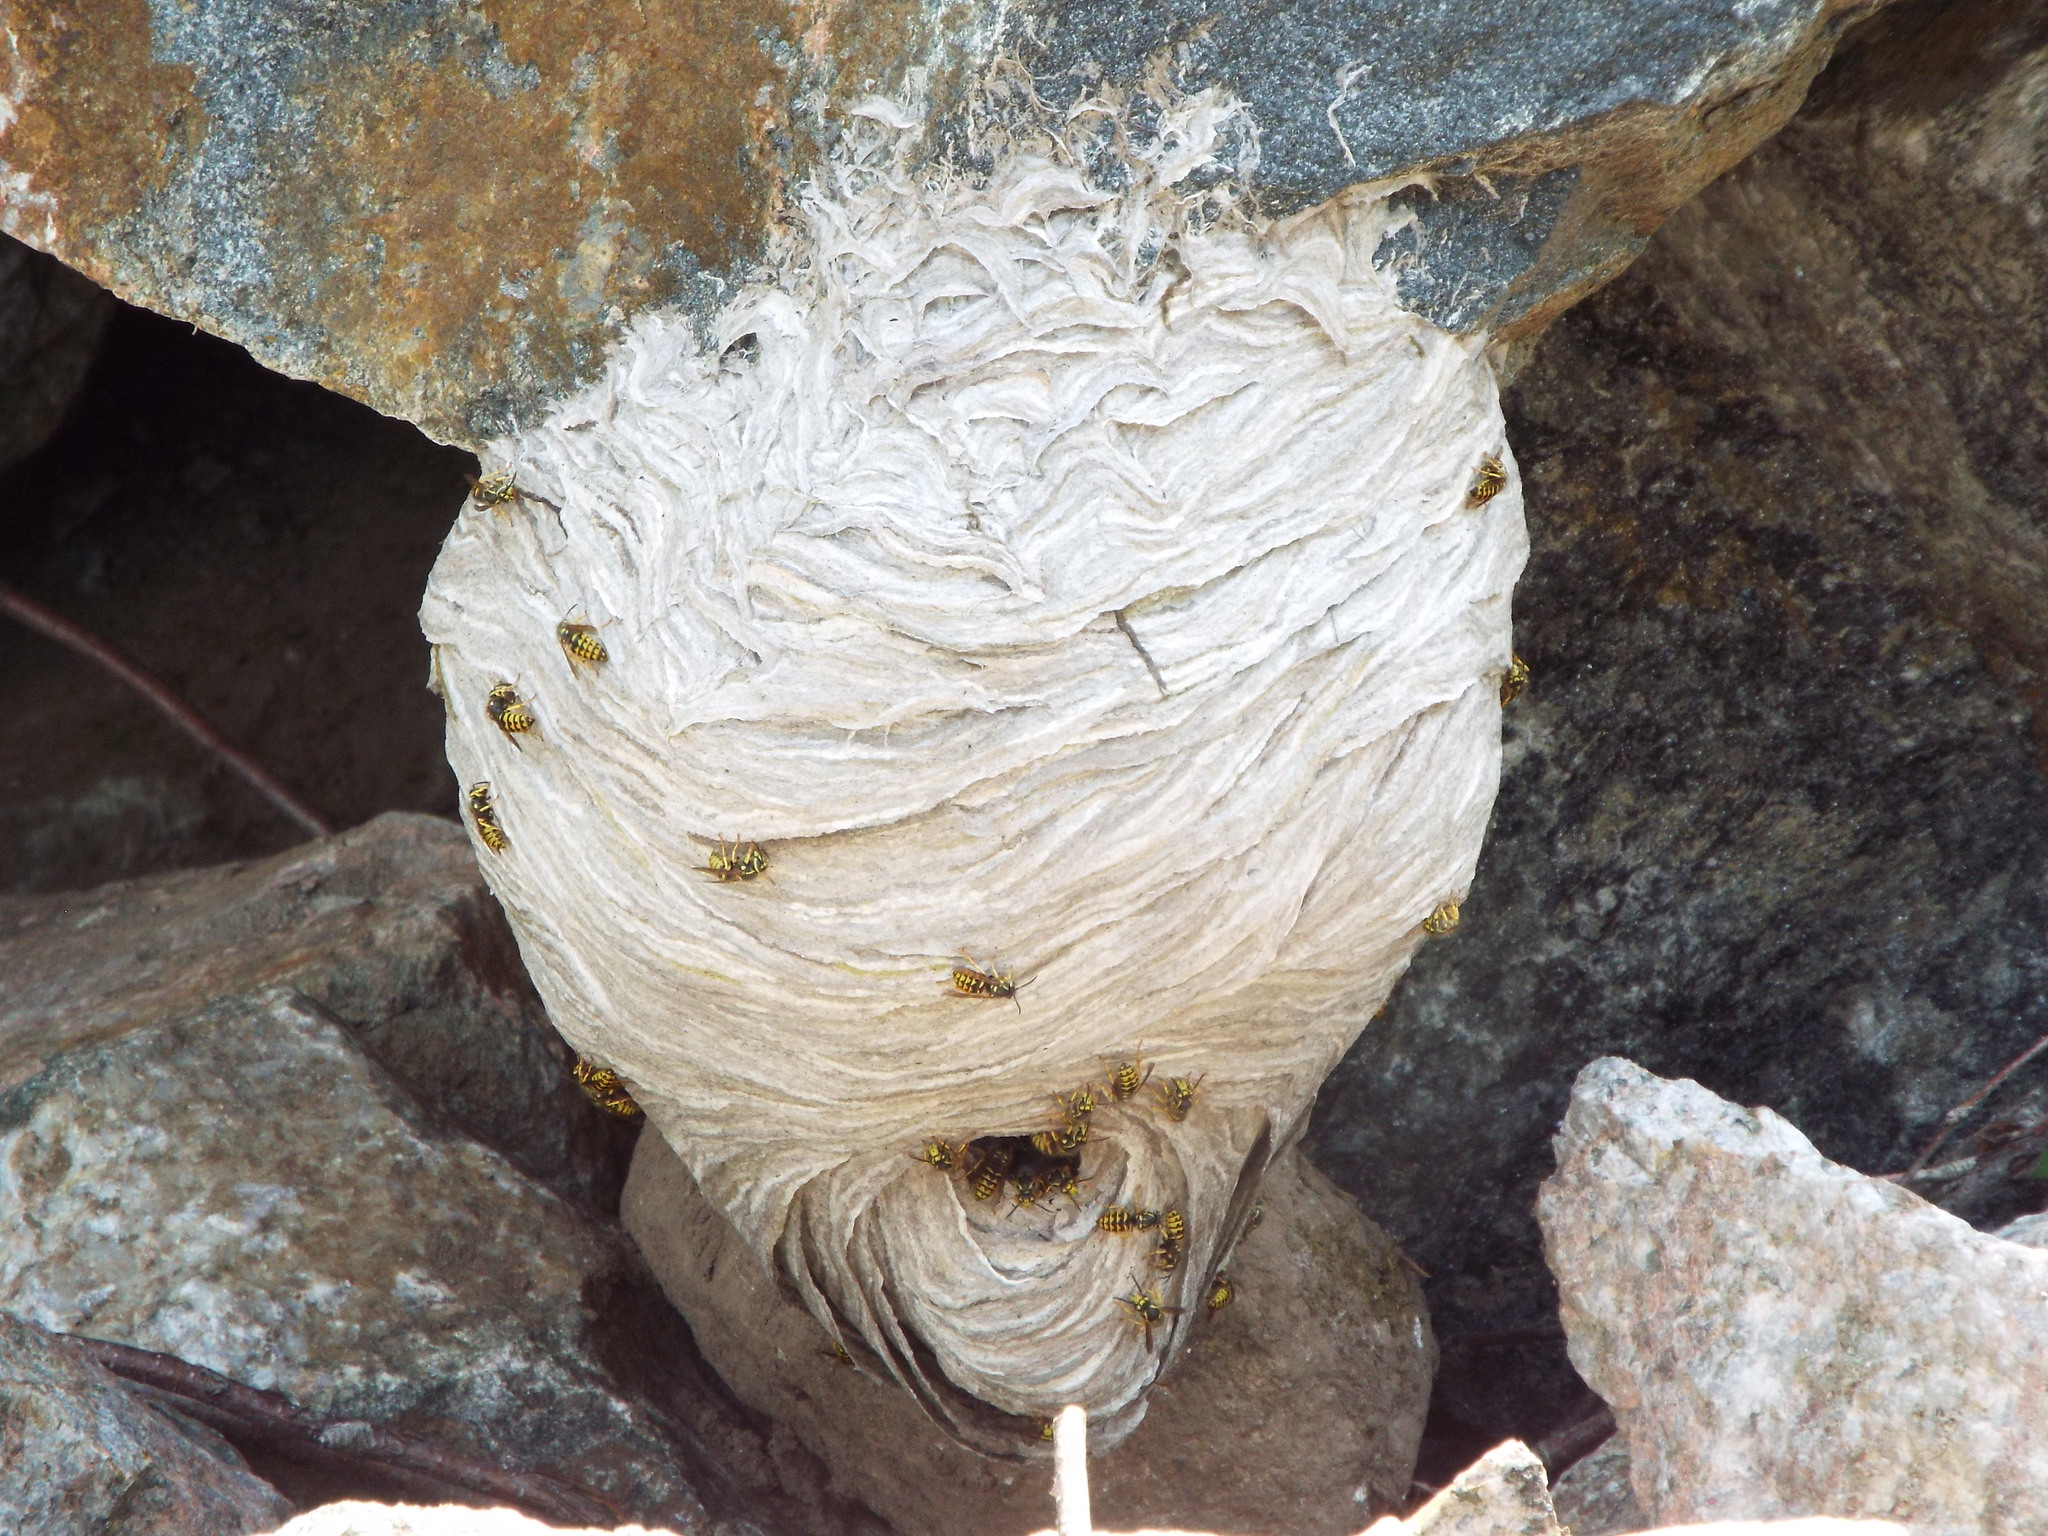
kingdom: Animalia
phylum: Arthropoda
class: Insecta
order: Hymenoptera
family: Vespidae
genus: Dolichovespula
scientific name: Dolichovespula arenaria
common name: Aerial yellowjacket
